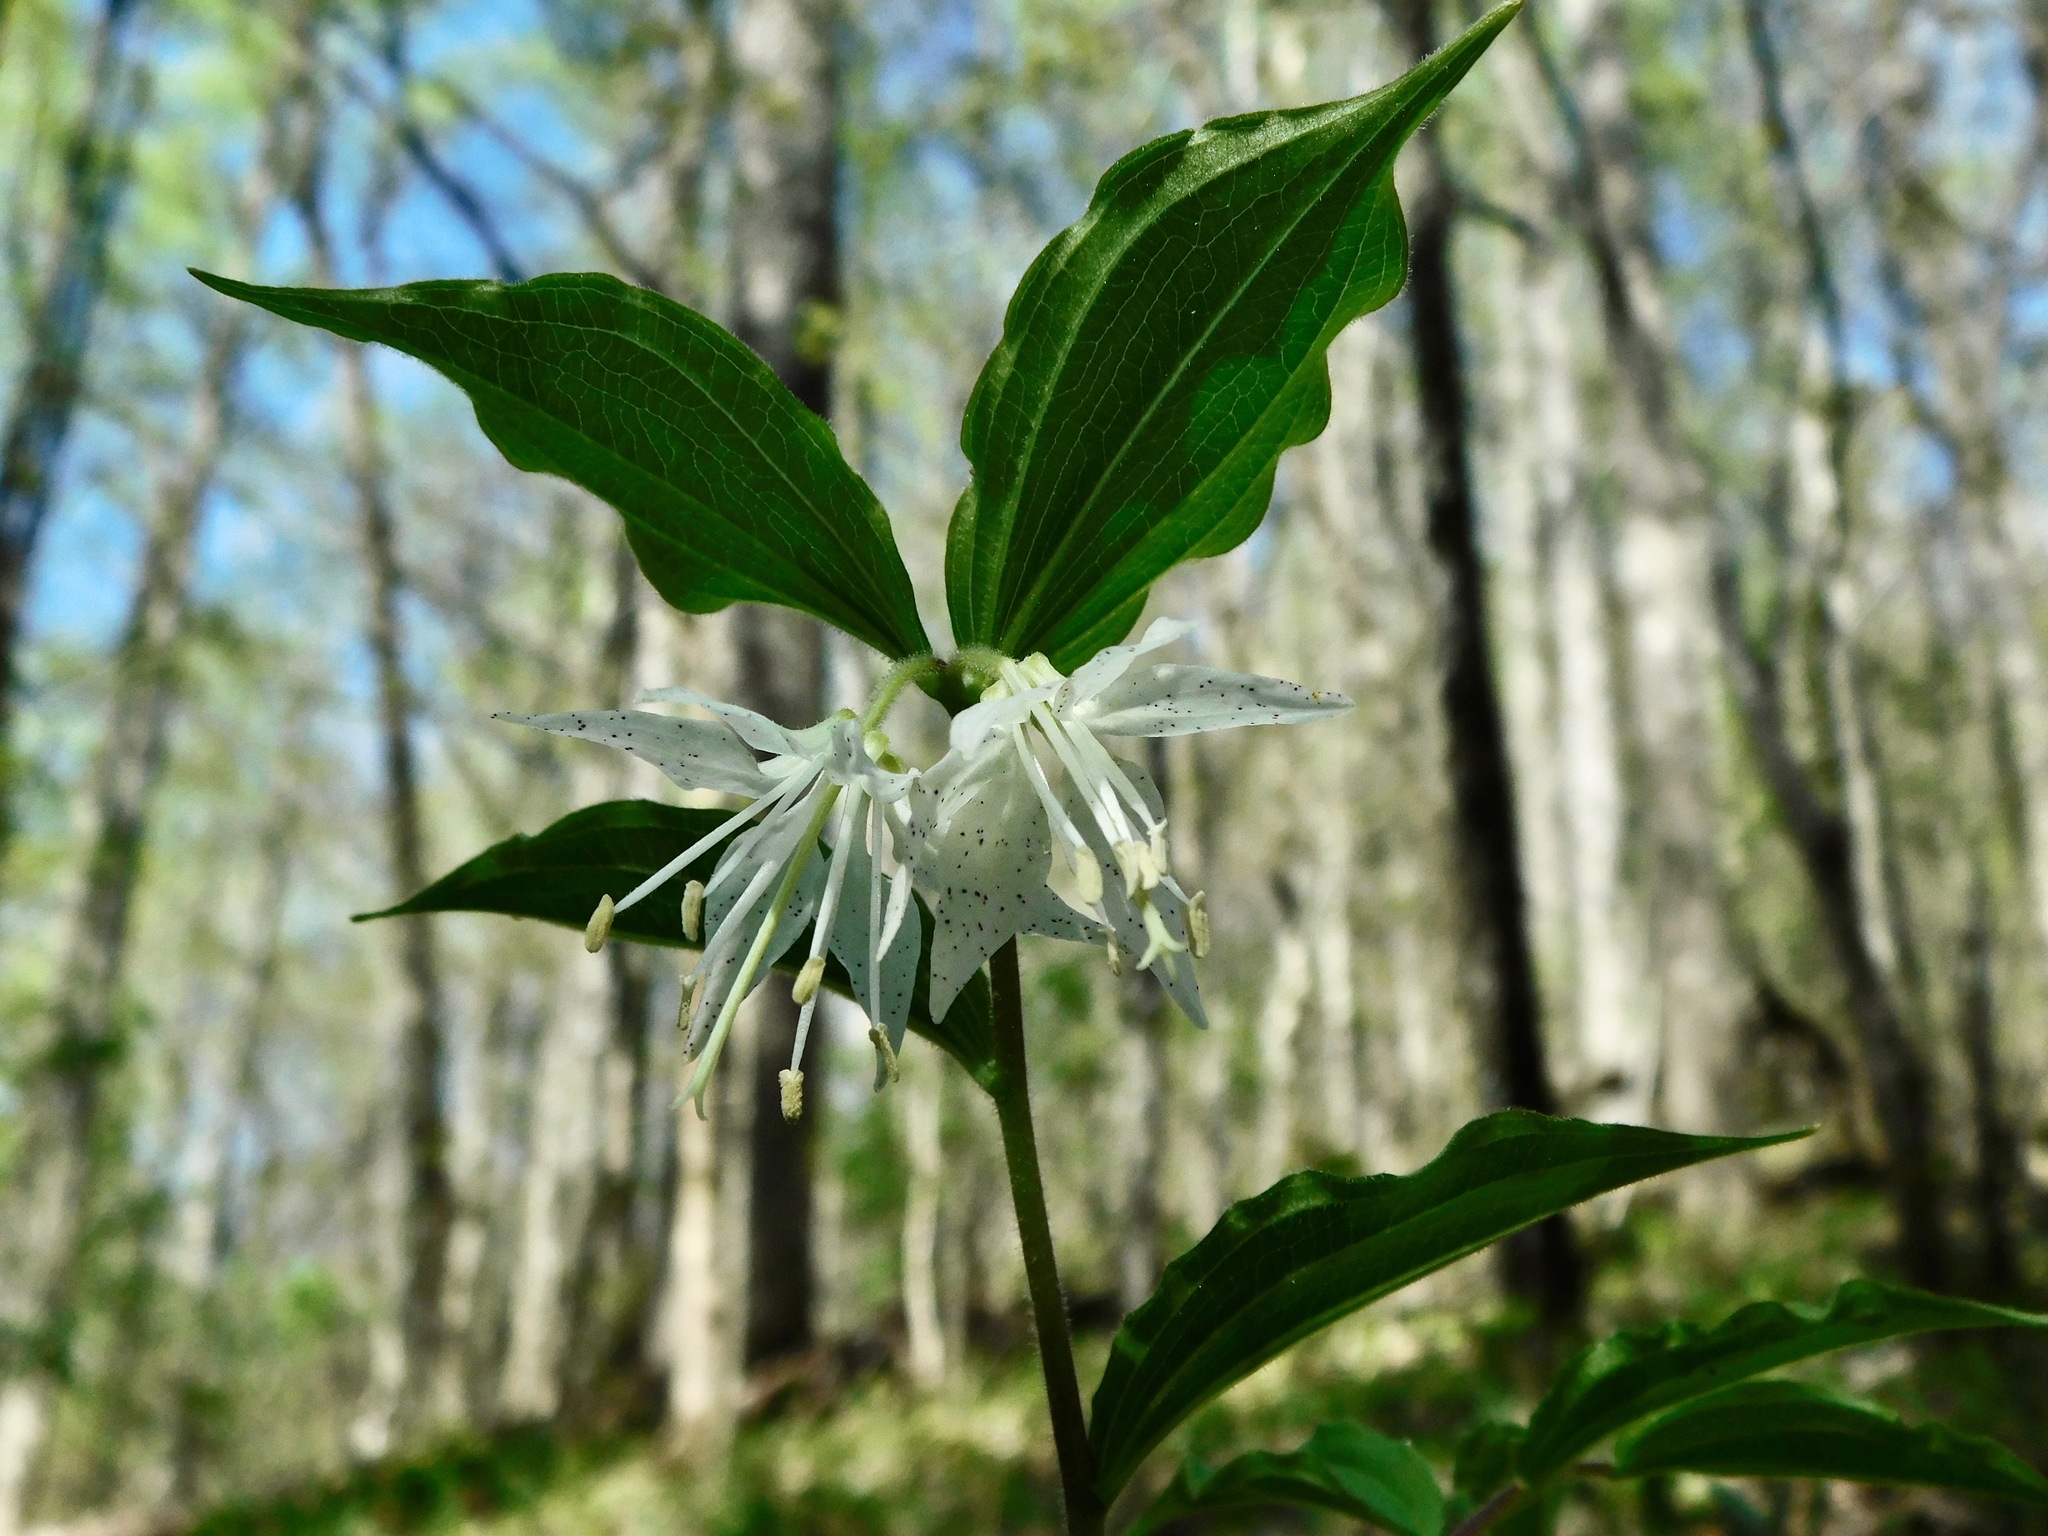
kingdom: Plantae
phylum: Tracheophyta
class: Liliopsida
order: Liliales
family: Liliaceae
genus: Prosartes
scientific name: Prosartes maculata
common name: Yellow mandarin
